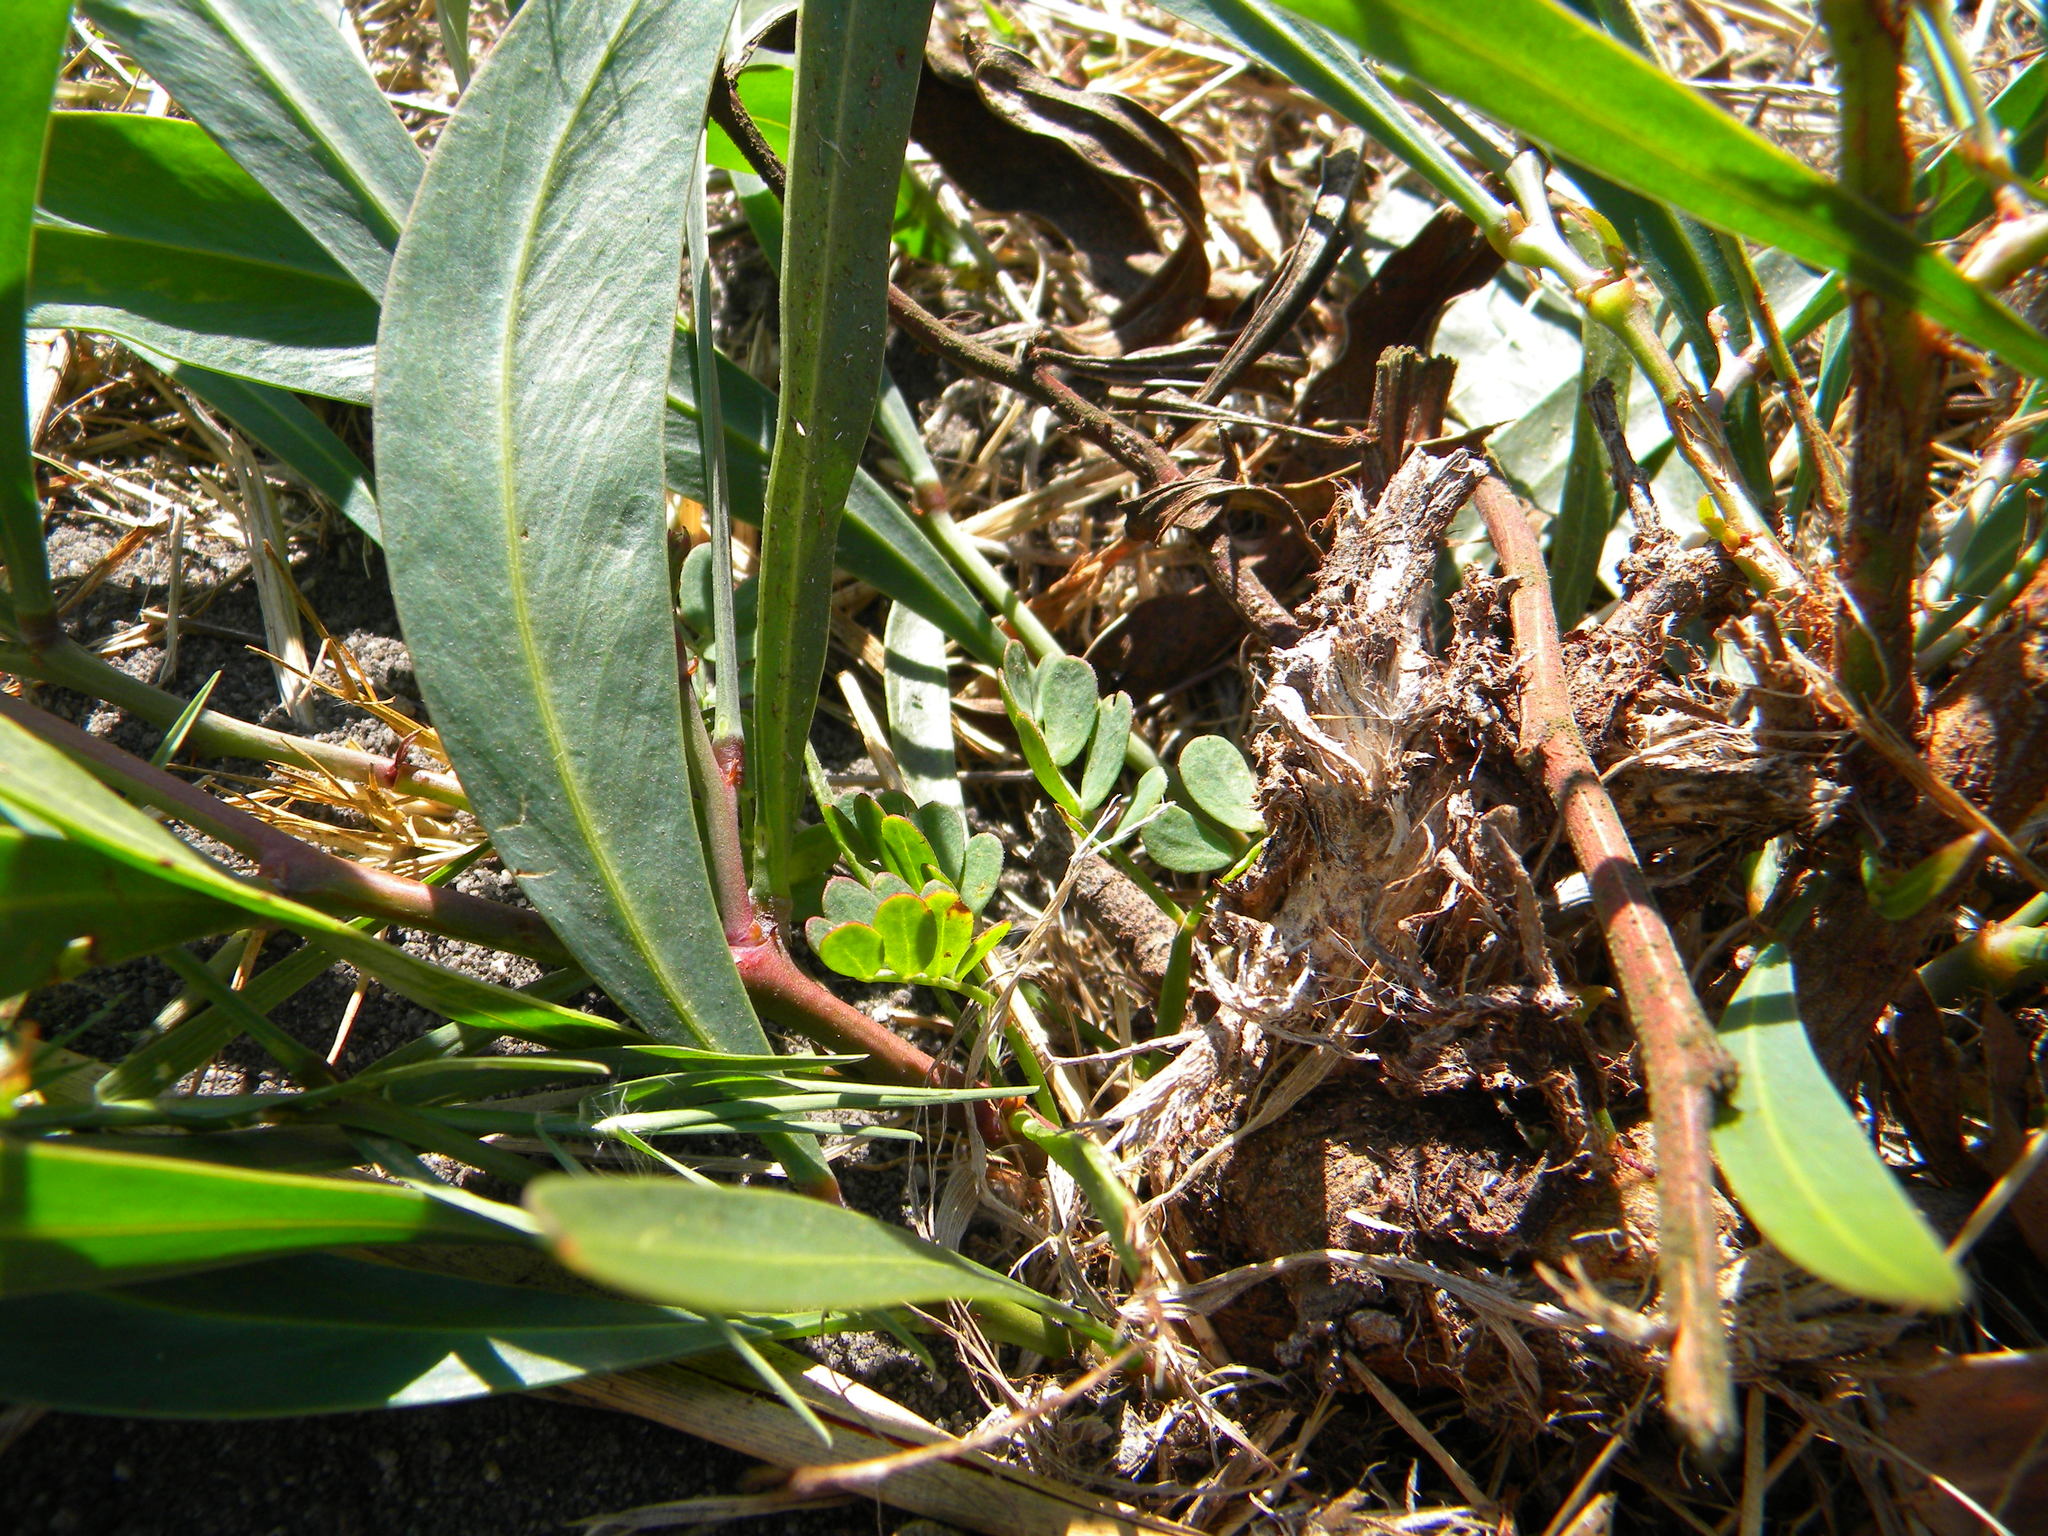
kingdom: Plantae
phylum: Tracheophyta
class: Magnoliopsida
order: Fabales
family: Fabaceae
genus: Acacia
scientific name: Acacia saligna
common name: Orange wattle
